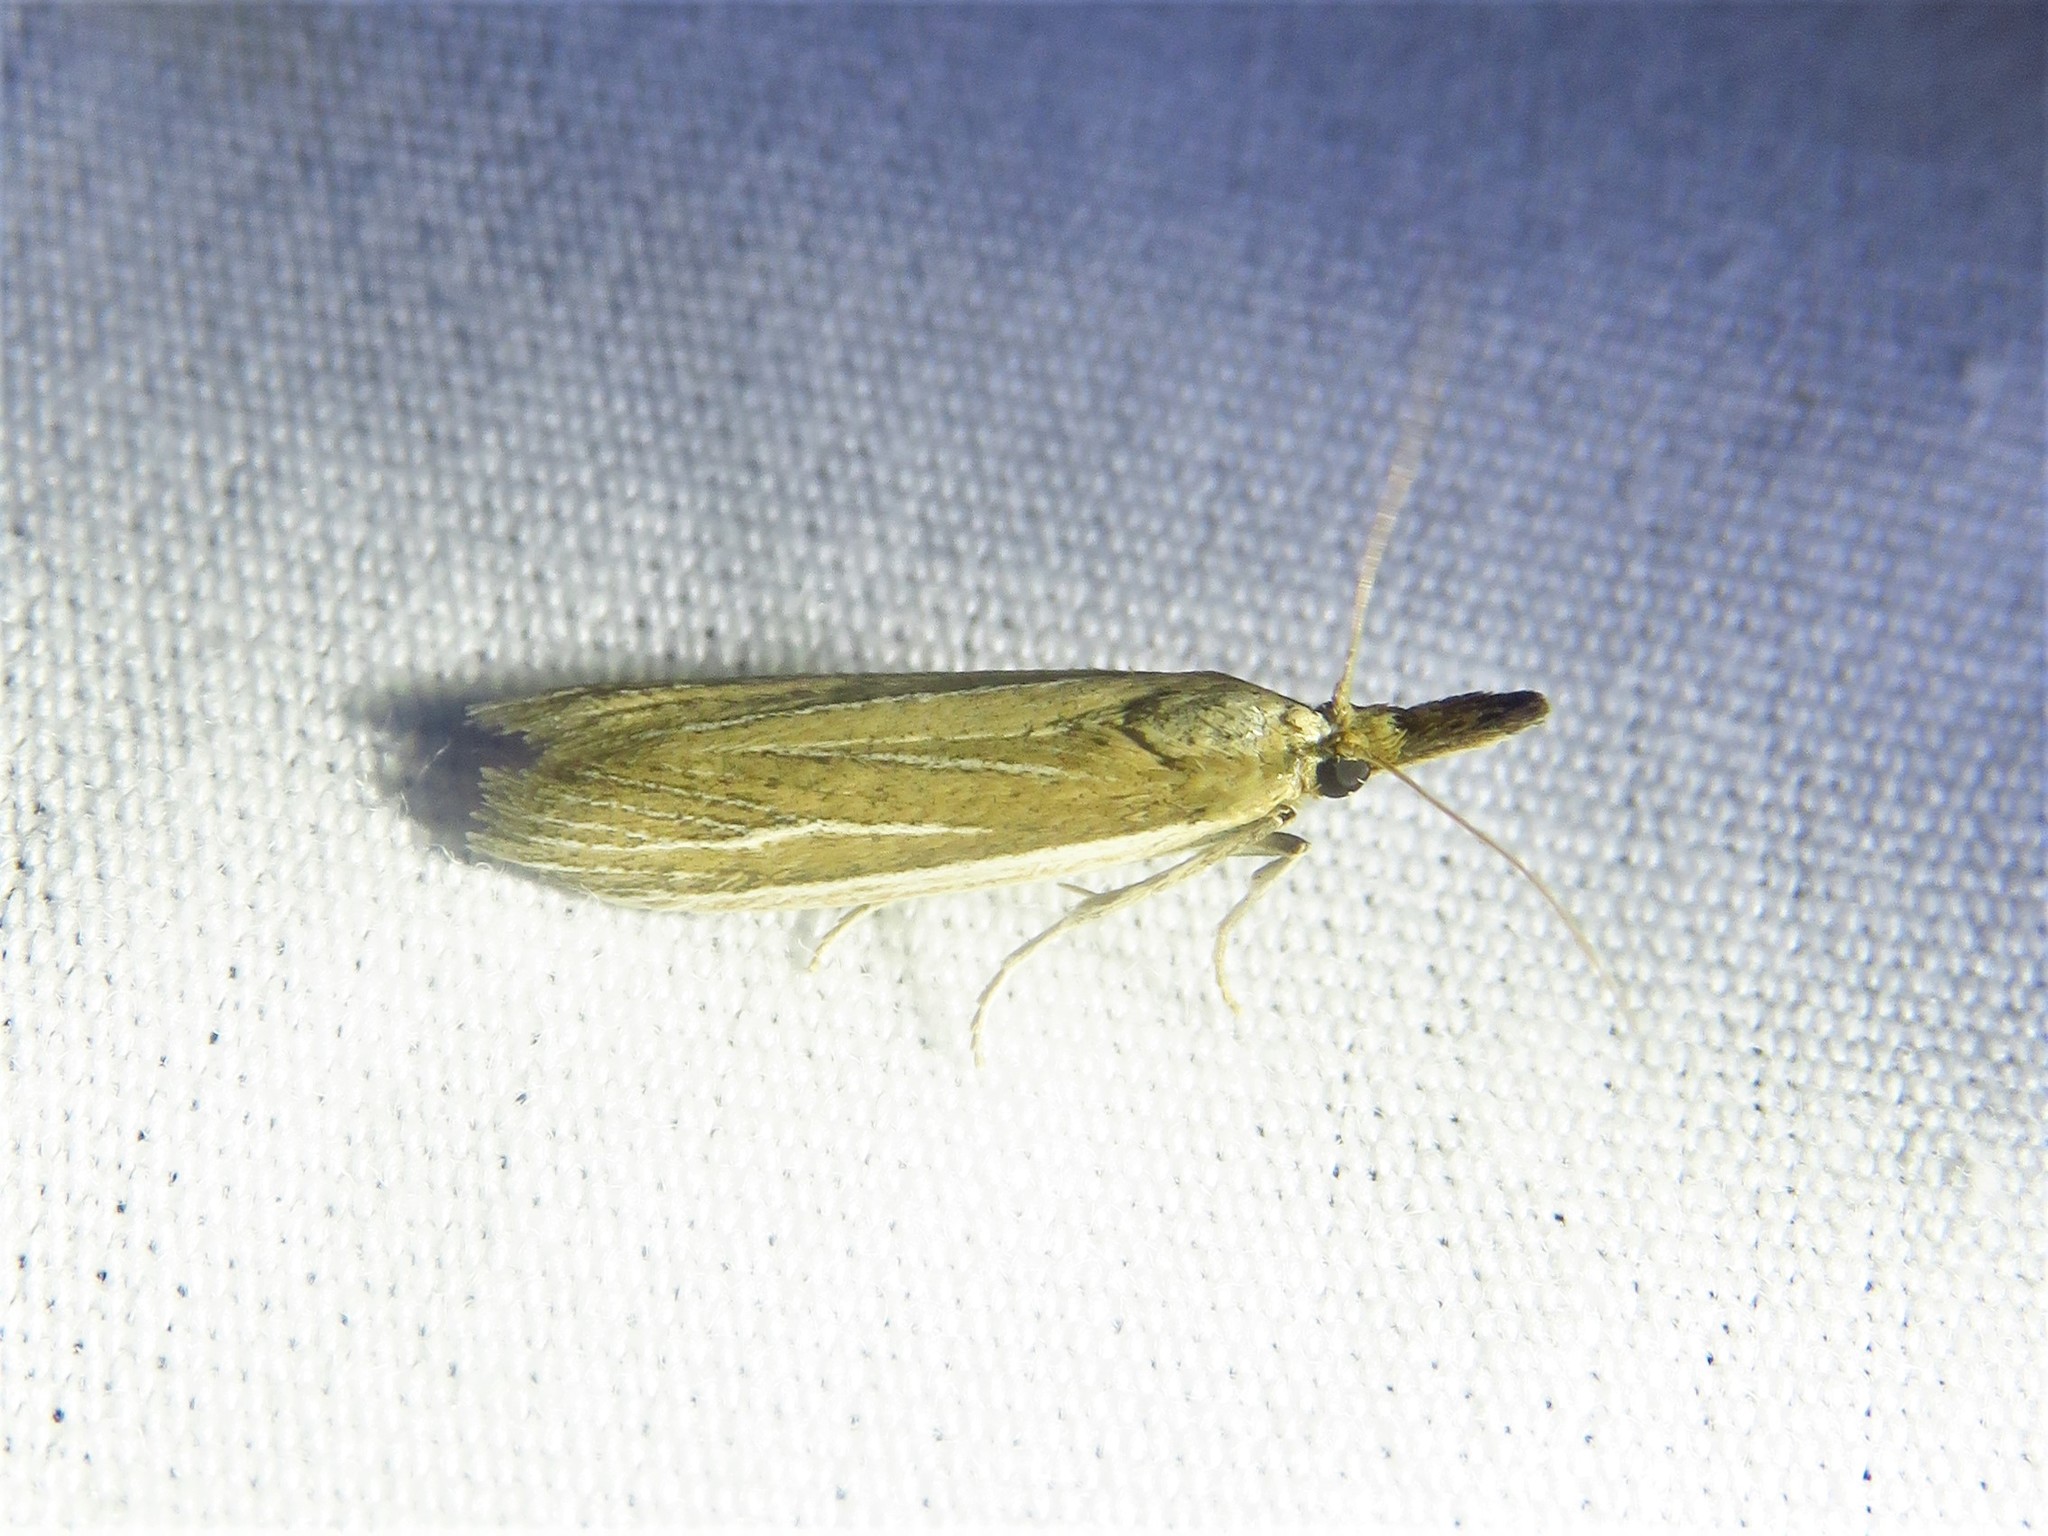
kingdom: Animalia
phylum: Arthropoda
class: Insecta
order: Lepidoptera
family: Pyralidae
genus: Peoria
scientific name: Peoria tetradella
